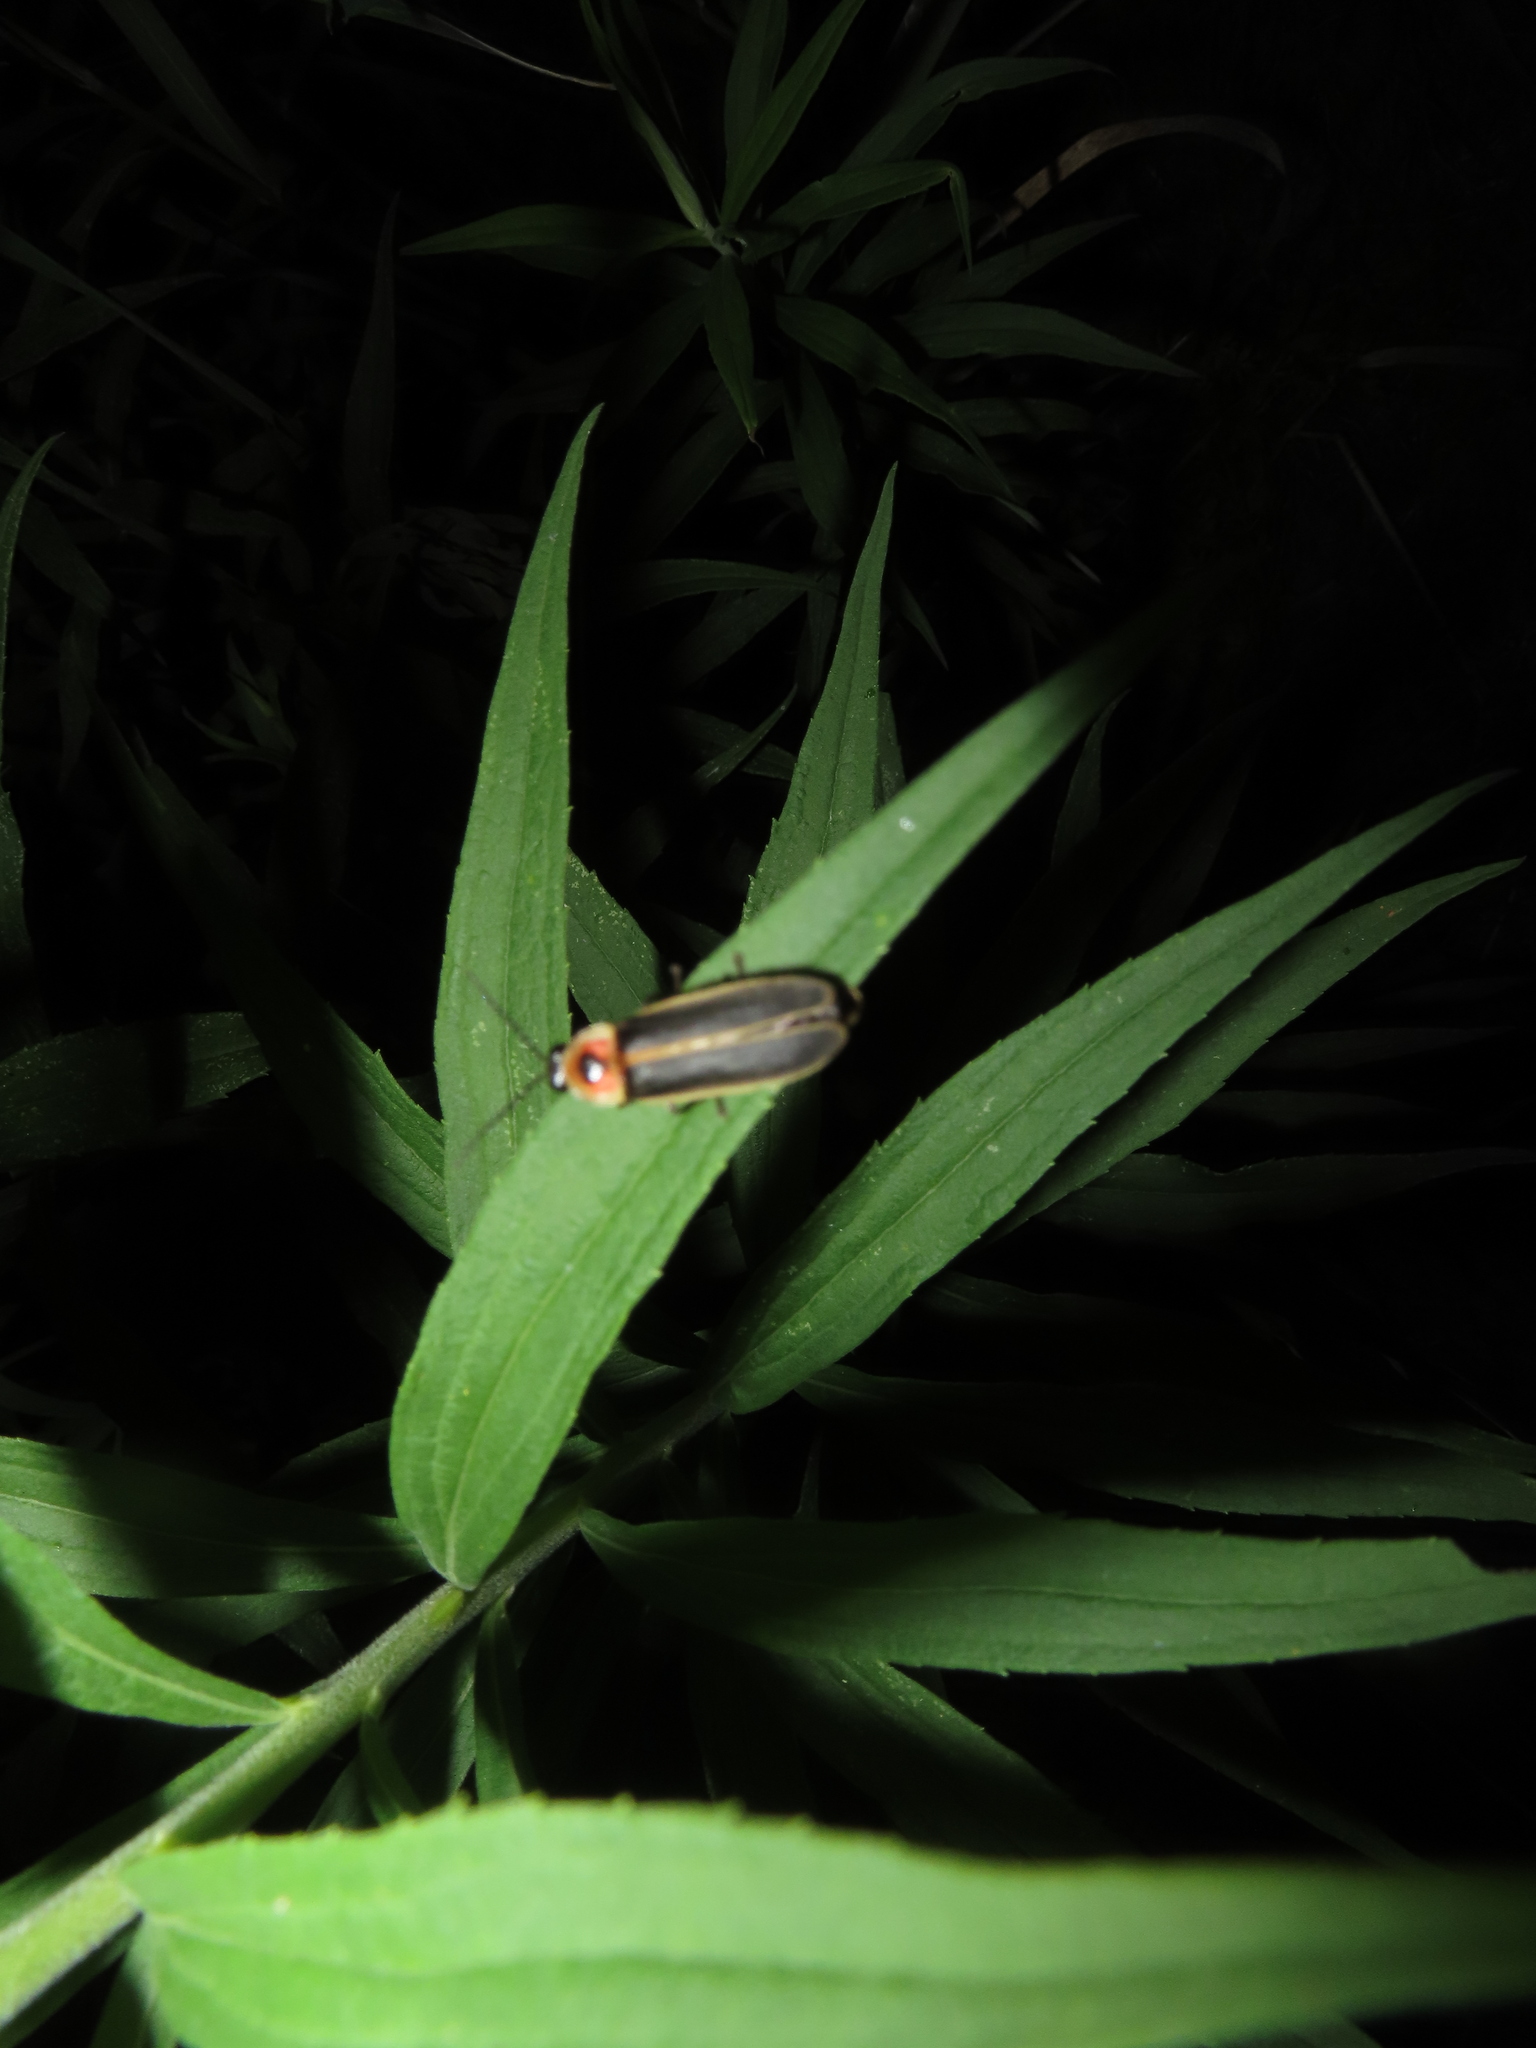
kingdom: Animalia
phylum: Arthropoda
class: Insecta
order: Coleoptera
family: Lampyridae
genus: Photinus
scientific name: Photinus pyralis
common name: Big dipper firefly
